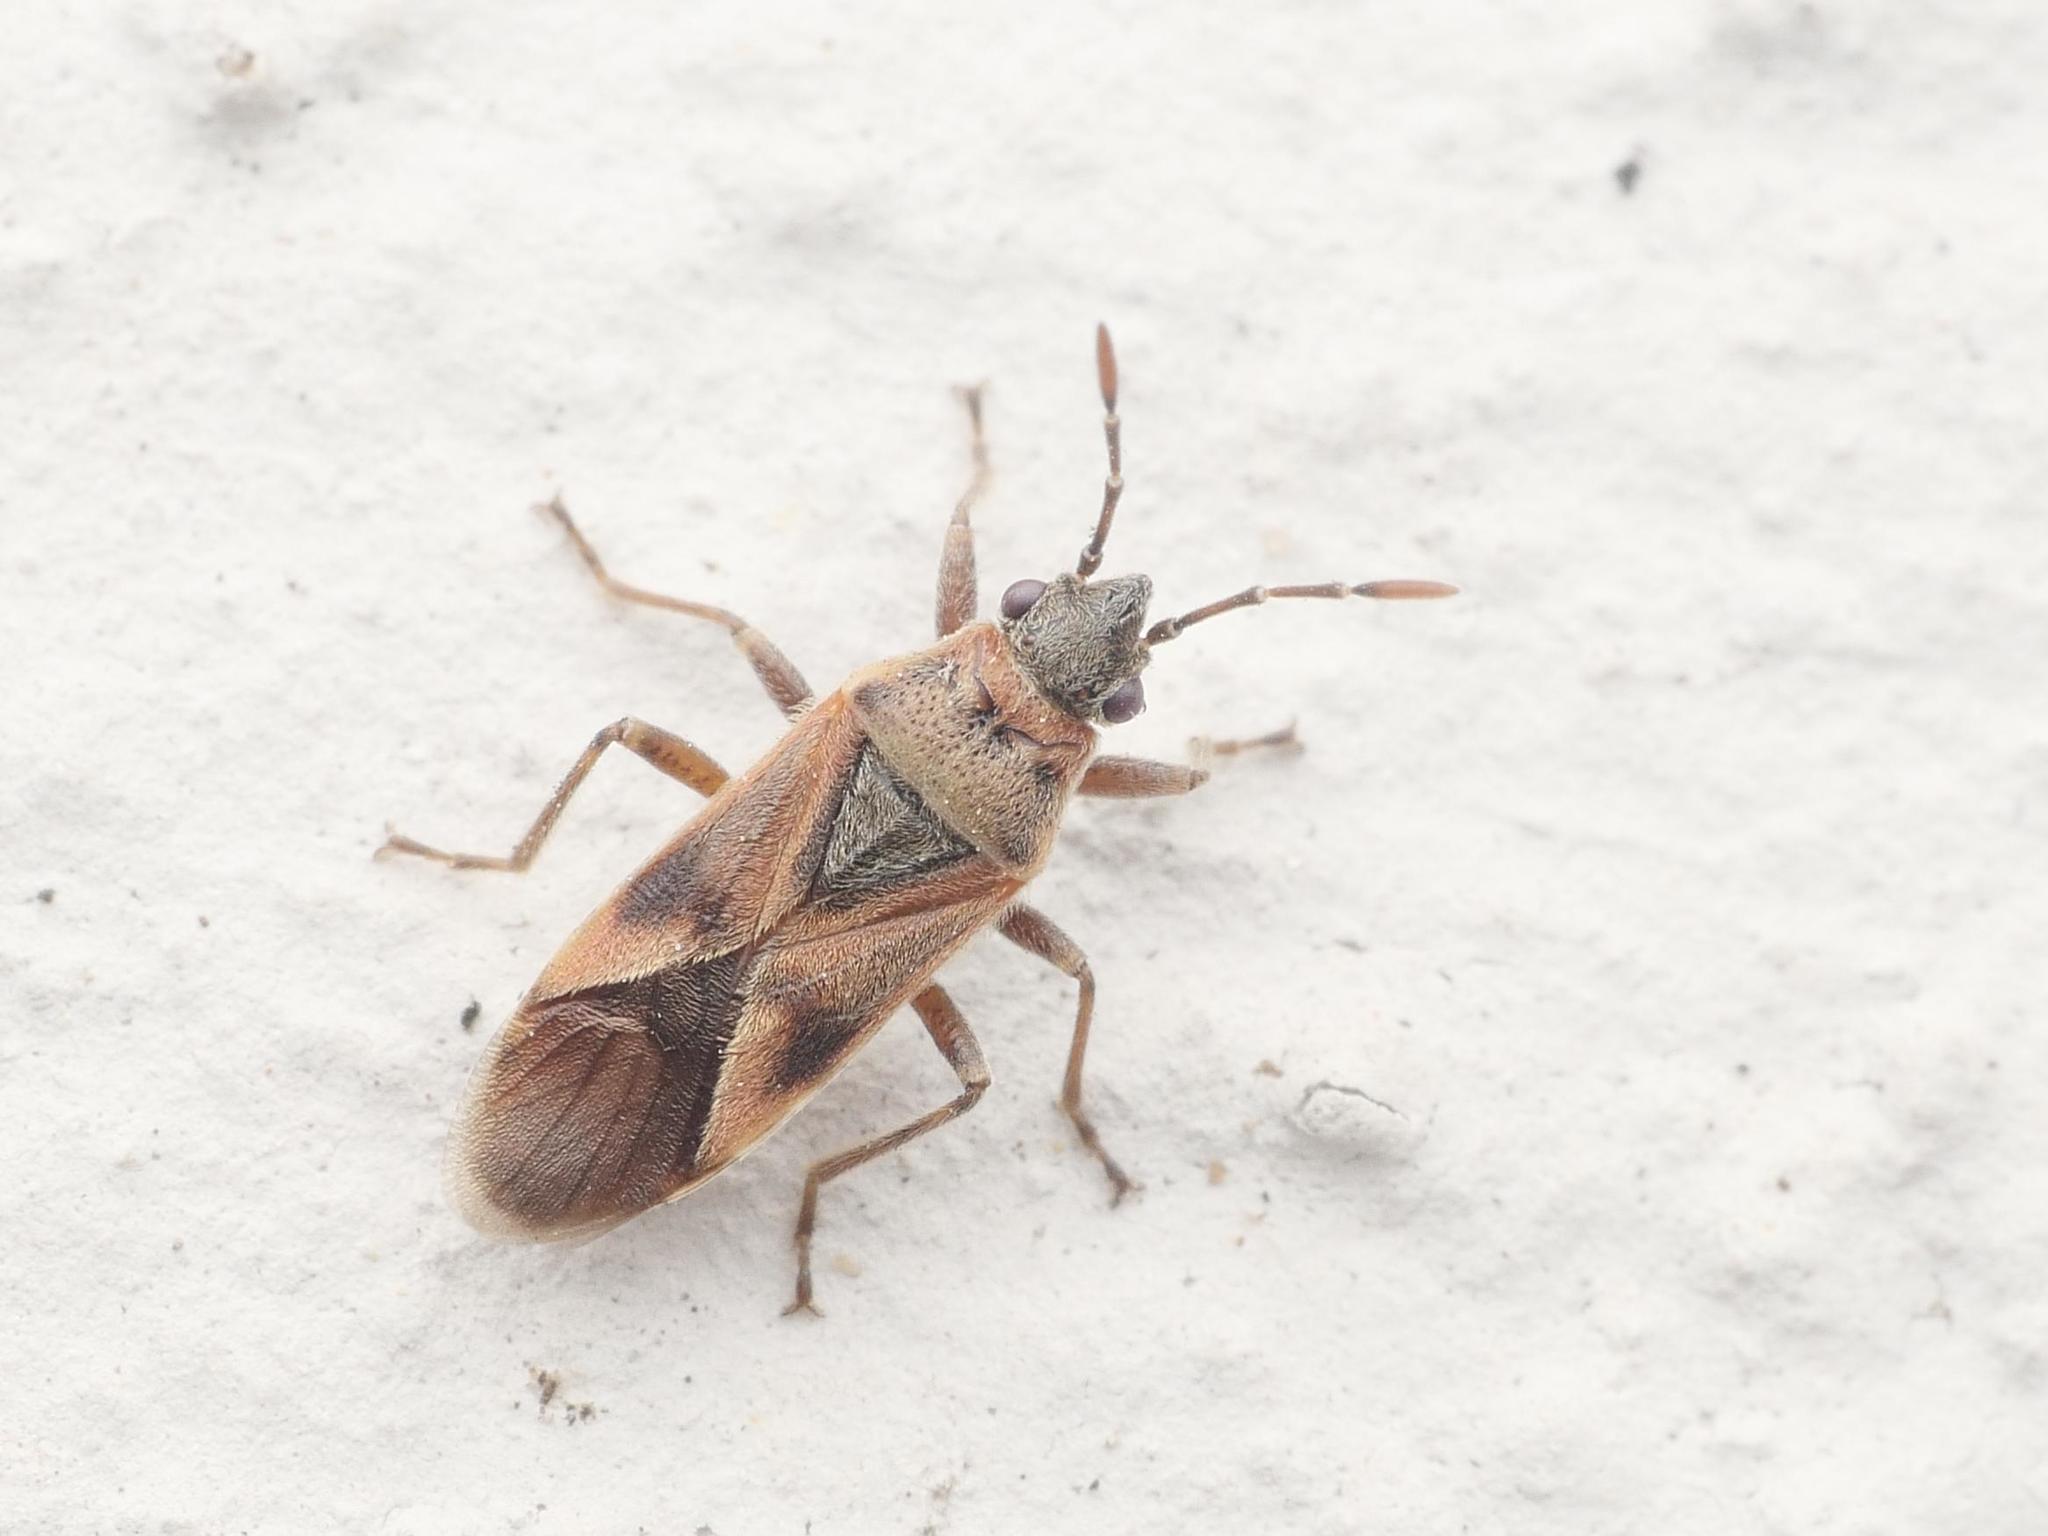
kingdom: Animalia
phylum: Arthropoda
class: Insecta
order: Hemiptera
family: Lygaeidae
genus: Arocatus
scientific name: Arocatus roeselii
